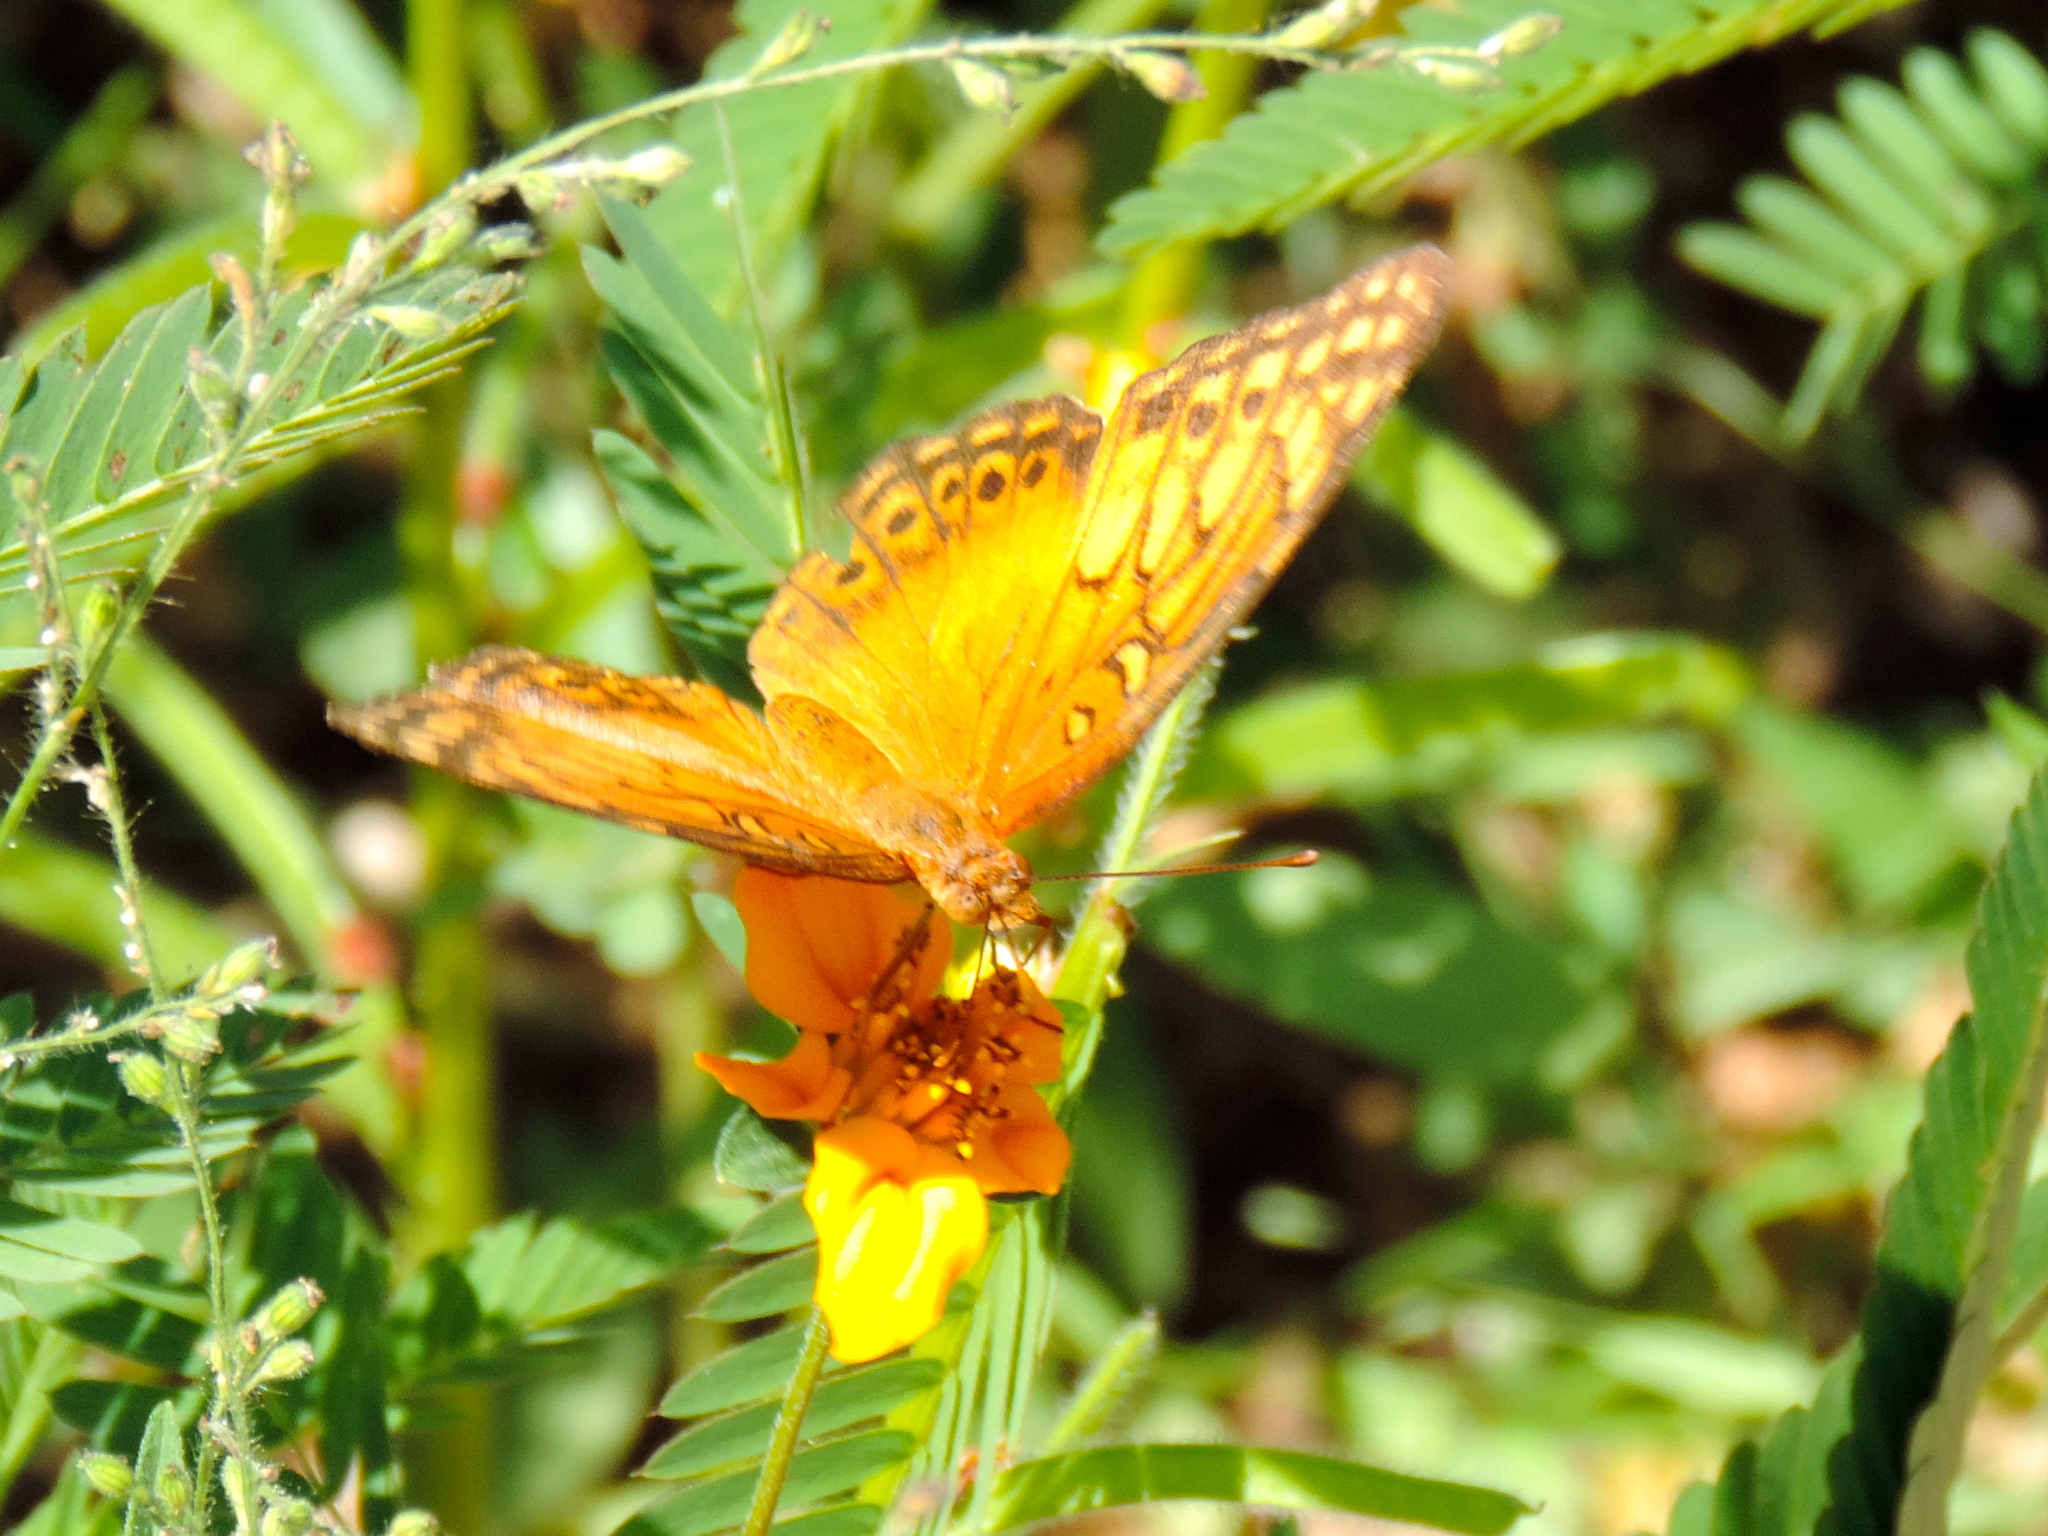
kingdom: Animalia
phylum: Arthropoda
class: Insecta
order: Lepidoptera
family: Nymphalidae
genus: Euptoieta
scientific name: Euptoieta hegesia
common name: Mexican fritillary
